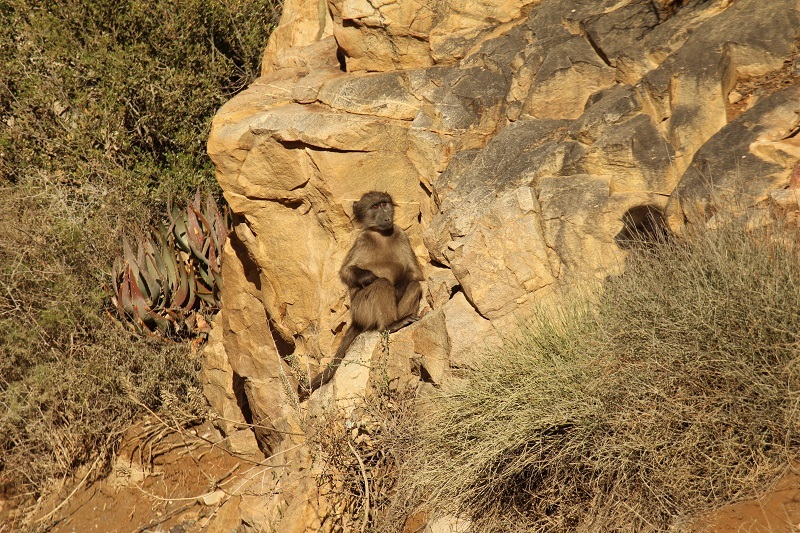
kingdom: Animalia
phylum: Chordata
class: Mammalia
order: Primates
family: Cercopithecidae
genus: Papio
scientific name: Papio ursinus
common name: Chacma baboon
